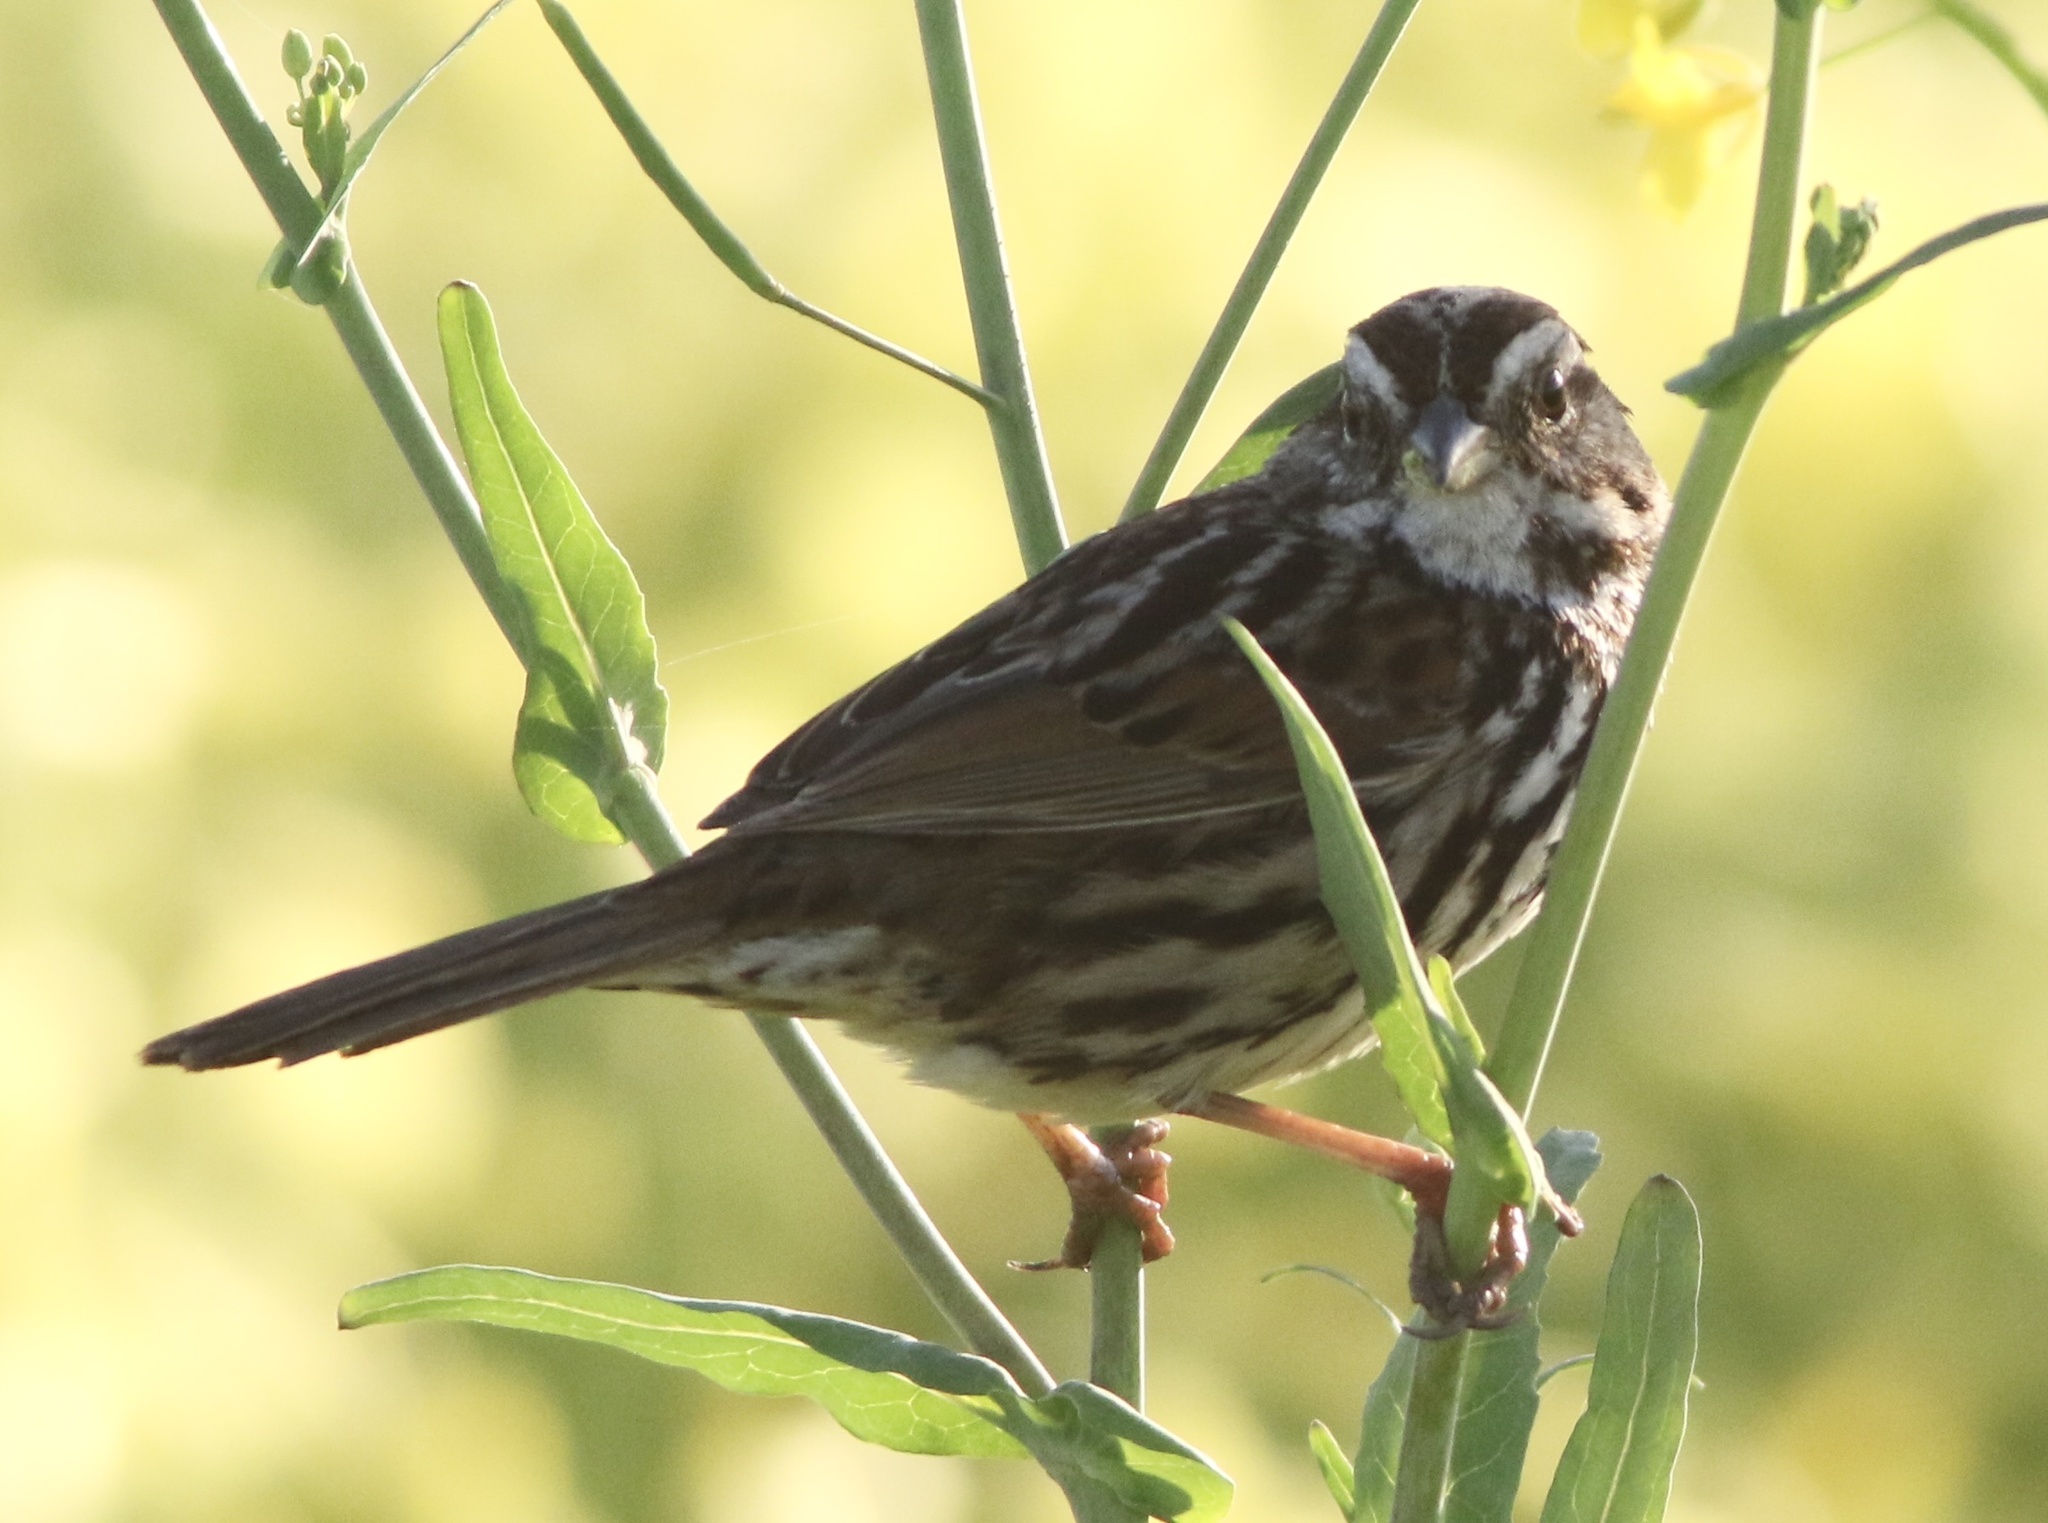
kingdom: Animalia
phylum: Chordata
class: Aves
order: Passeriformes
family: Passerellidae
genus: Melospiza
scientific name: Melospiza melodia
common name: Song sparrow
